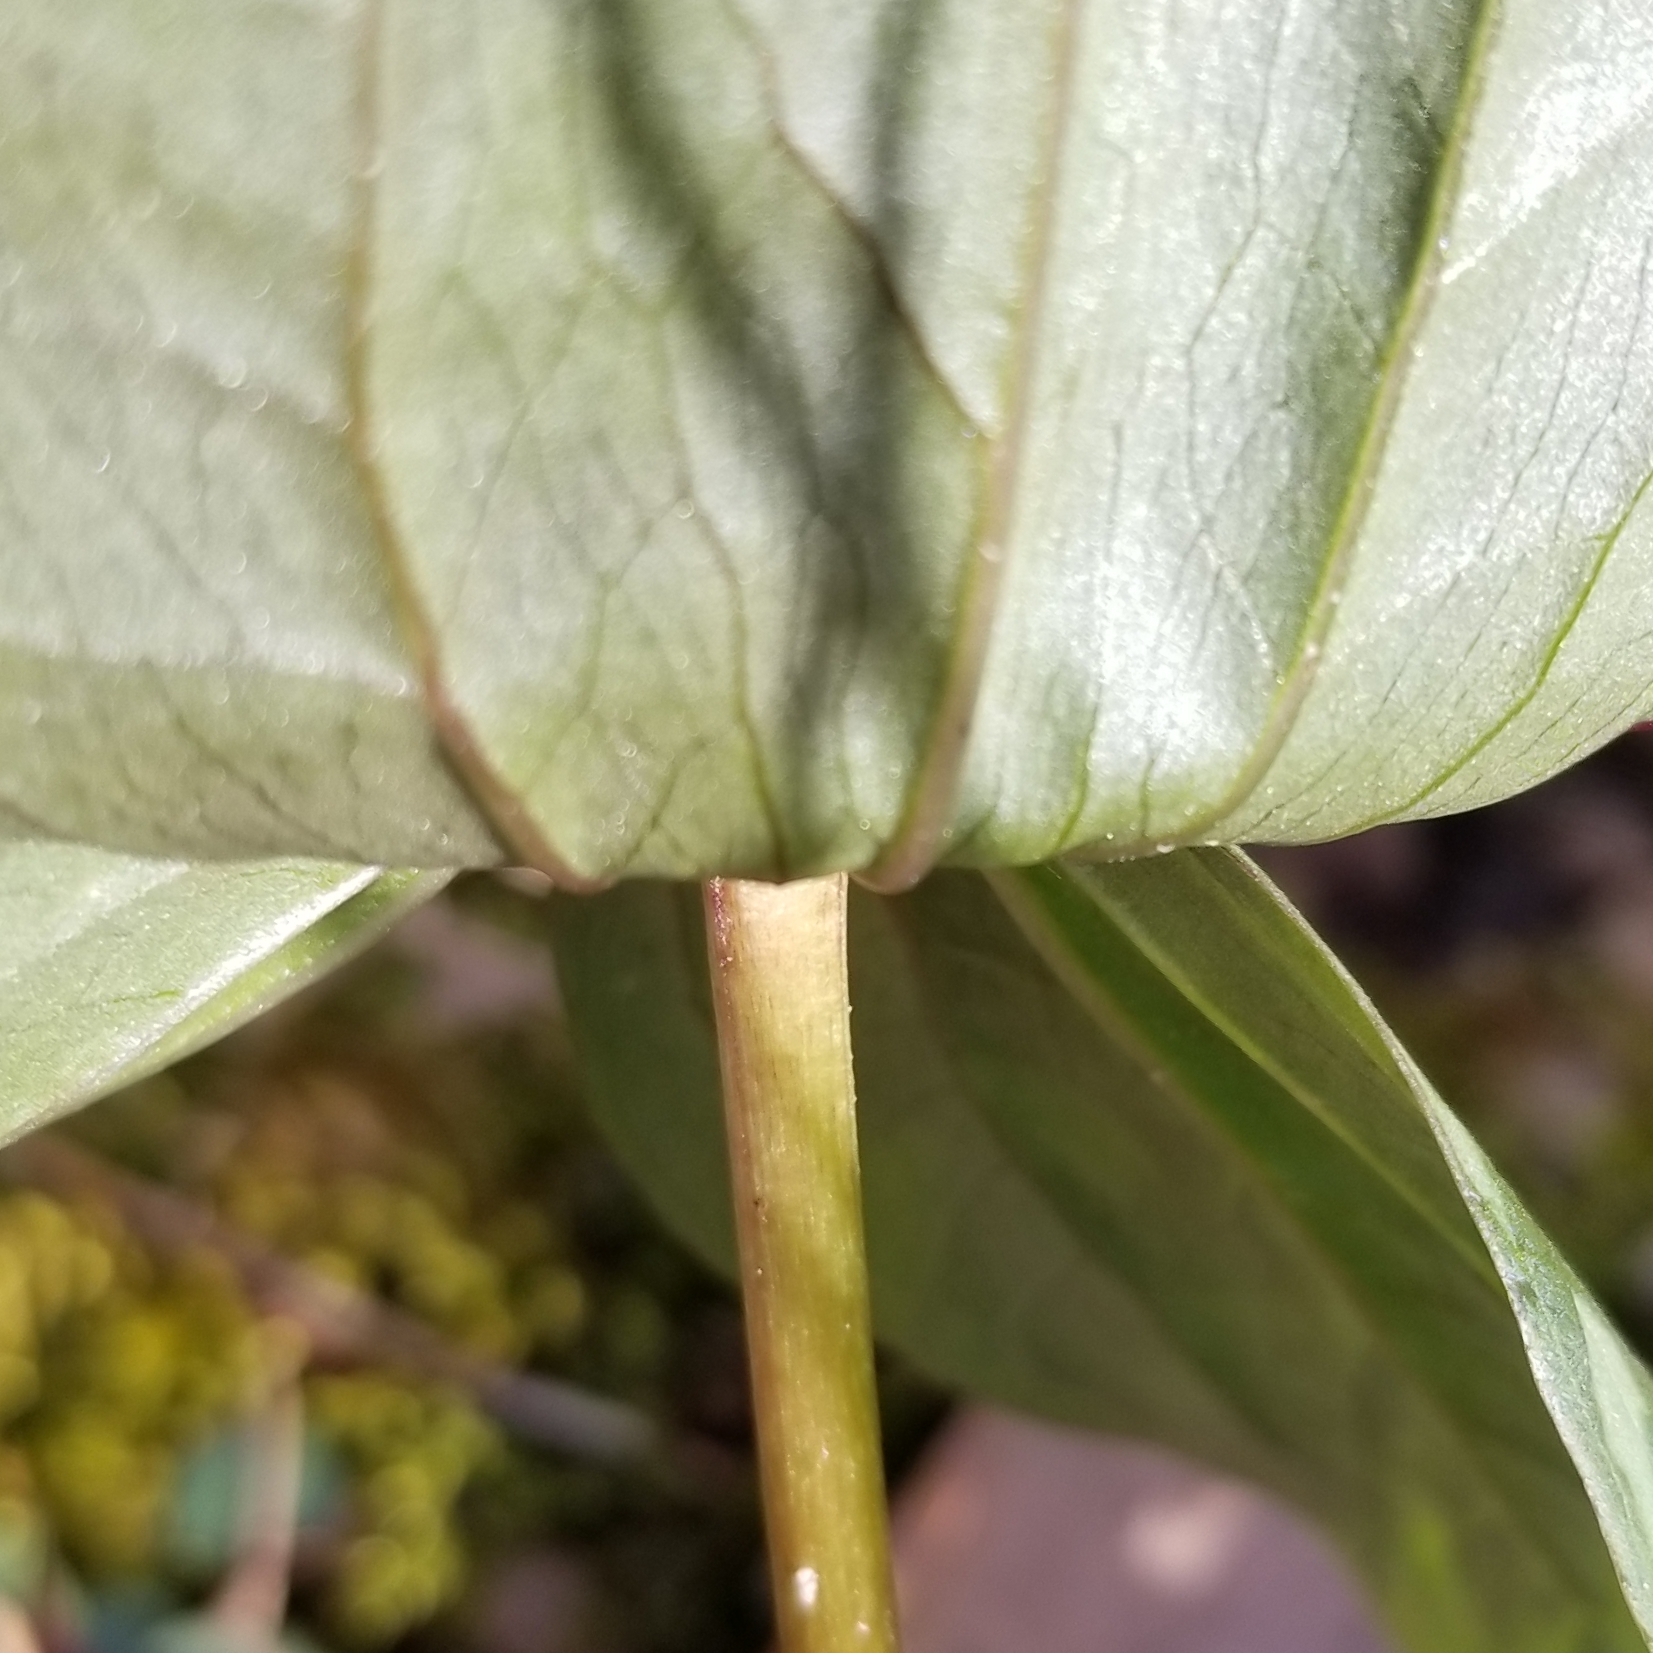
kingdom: Plantae
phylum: Tracheophyta
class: Liliopsida
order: Liliales
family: Melanthiaceae
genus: Trillium
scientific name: Trillium cuneatum
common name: Cuneate trillium
